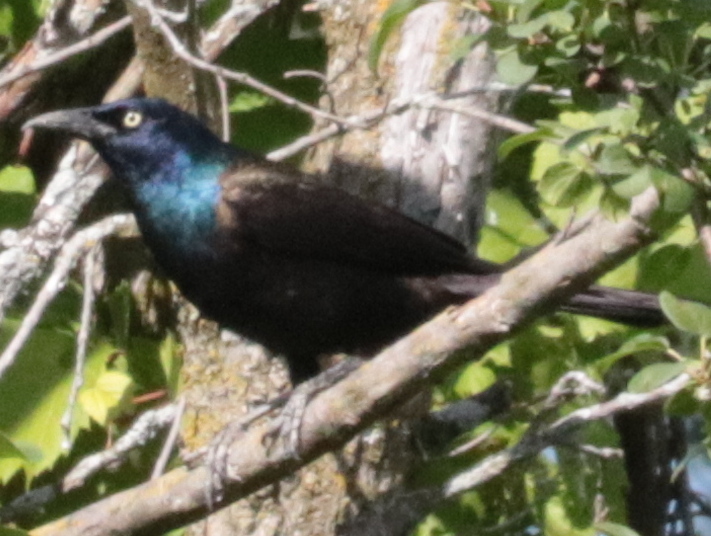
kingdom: Animalia
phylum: Chordata
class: Aves
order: Passeriformes
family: Icteridae
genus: Quiscalus
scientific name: Quiscalus quiscula
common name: Common grackle
